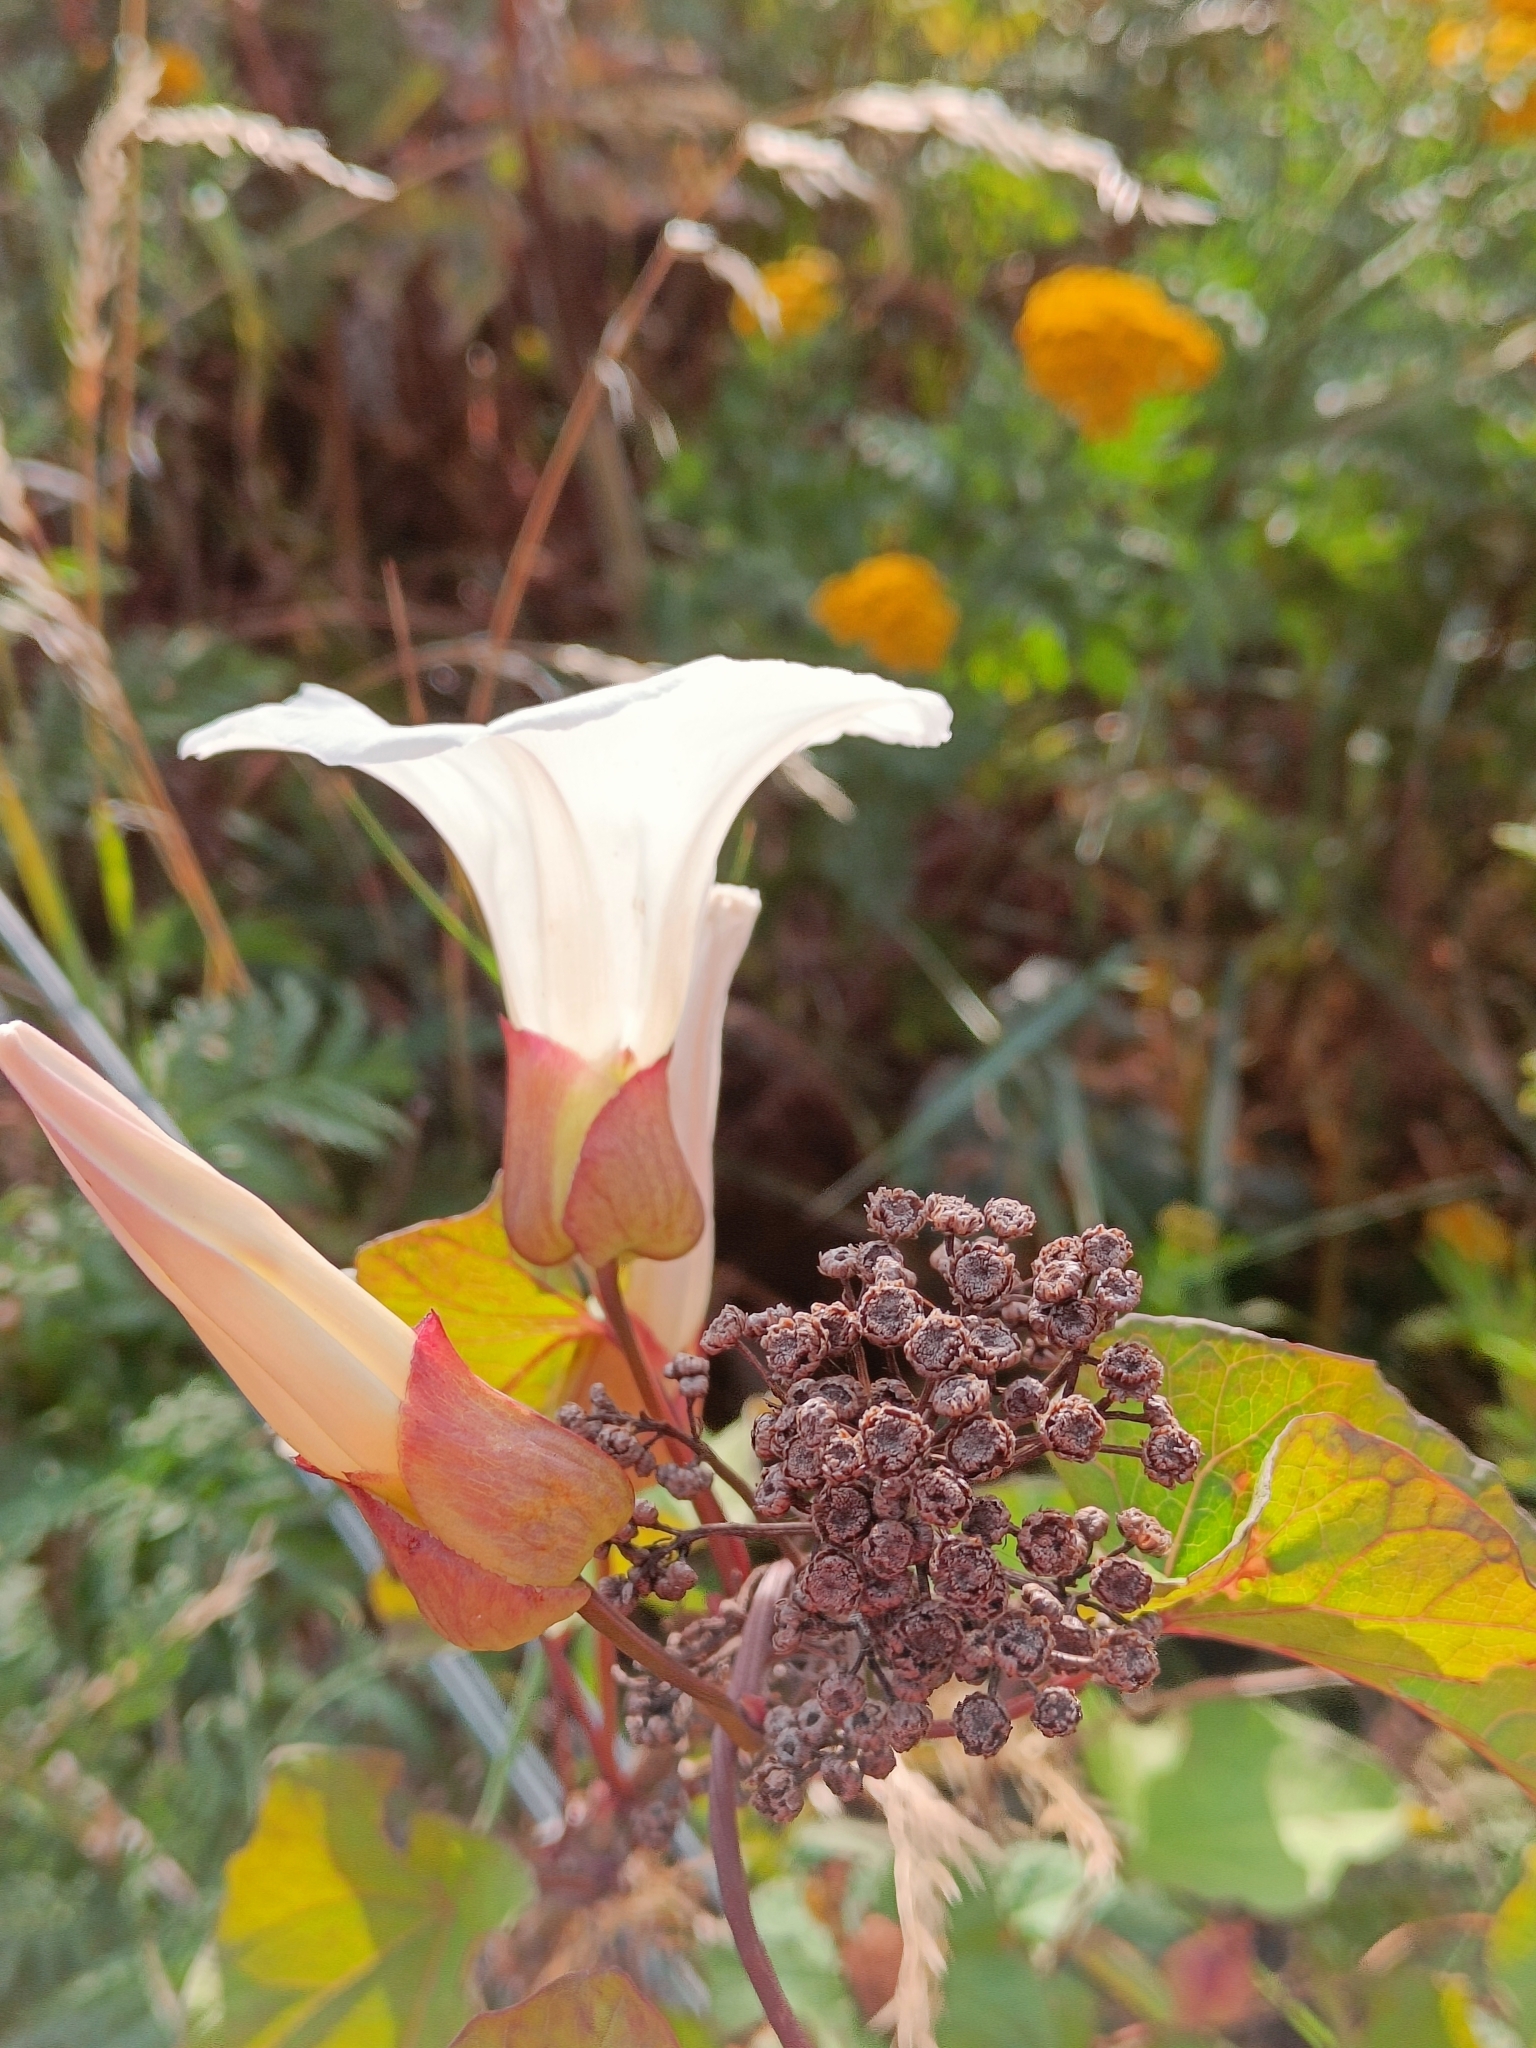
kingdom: Plantae
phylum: Tracheophyta
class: Magnoliopsida
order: Solanales
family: Convolvulaceae
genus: Calystegia
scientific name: Calystegia silvatica
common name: Large bindweed
